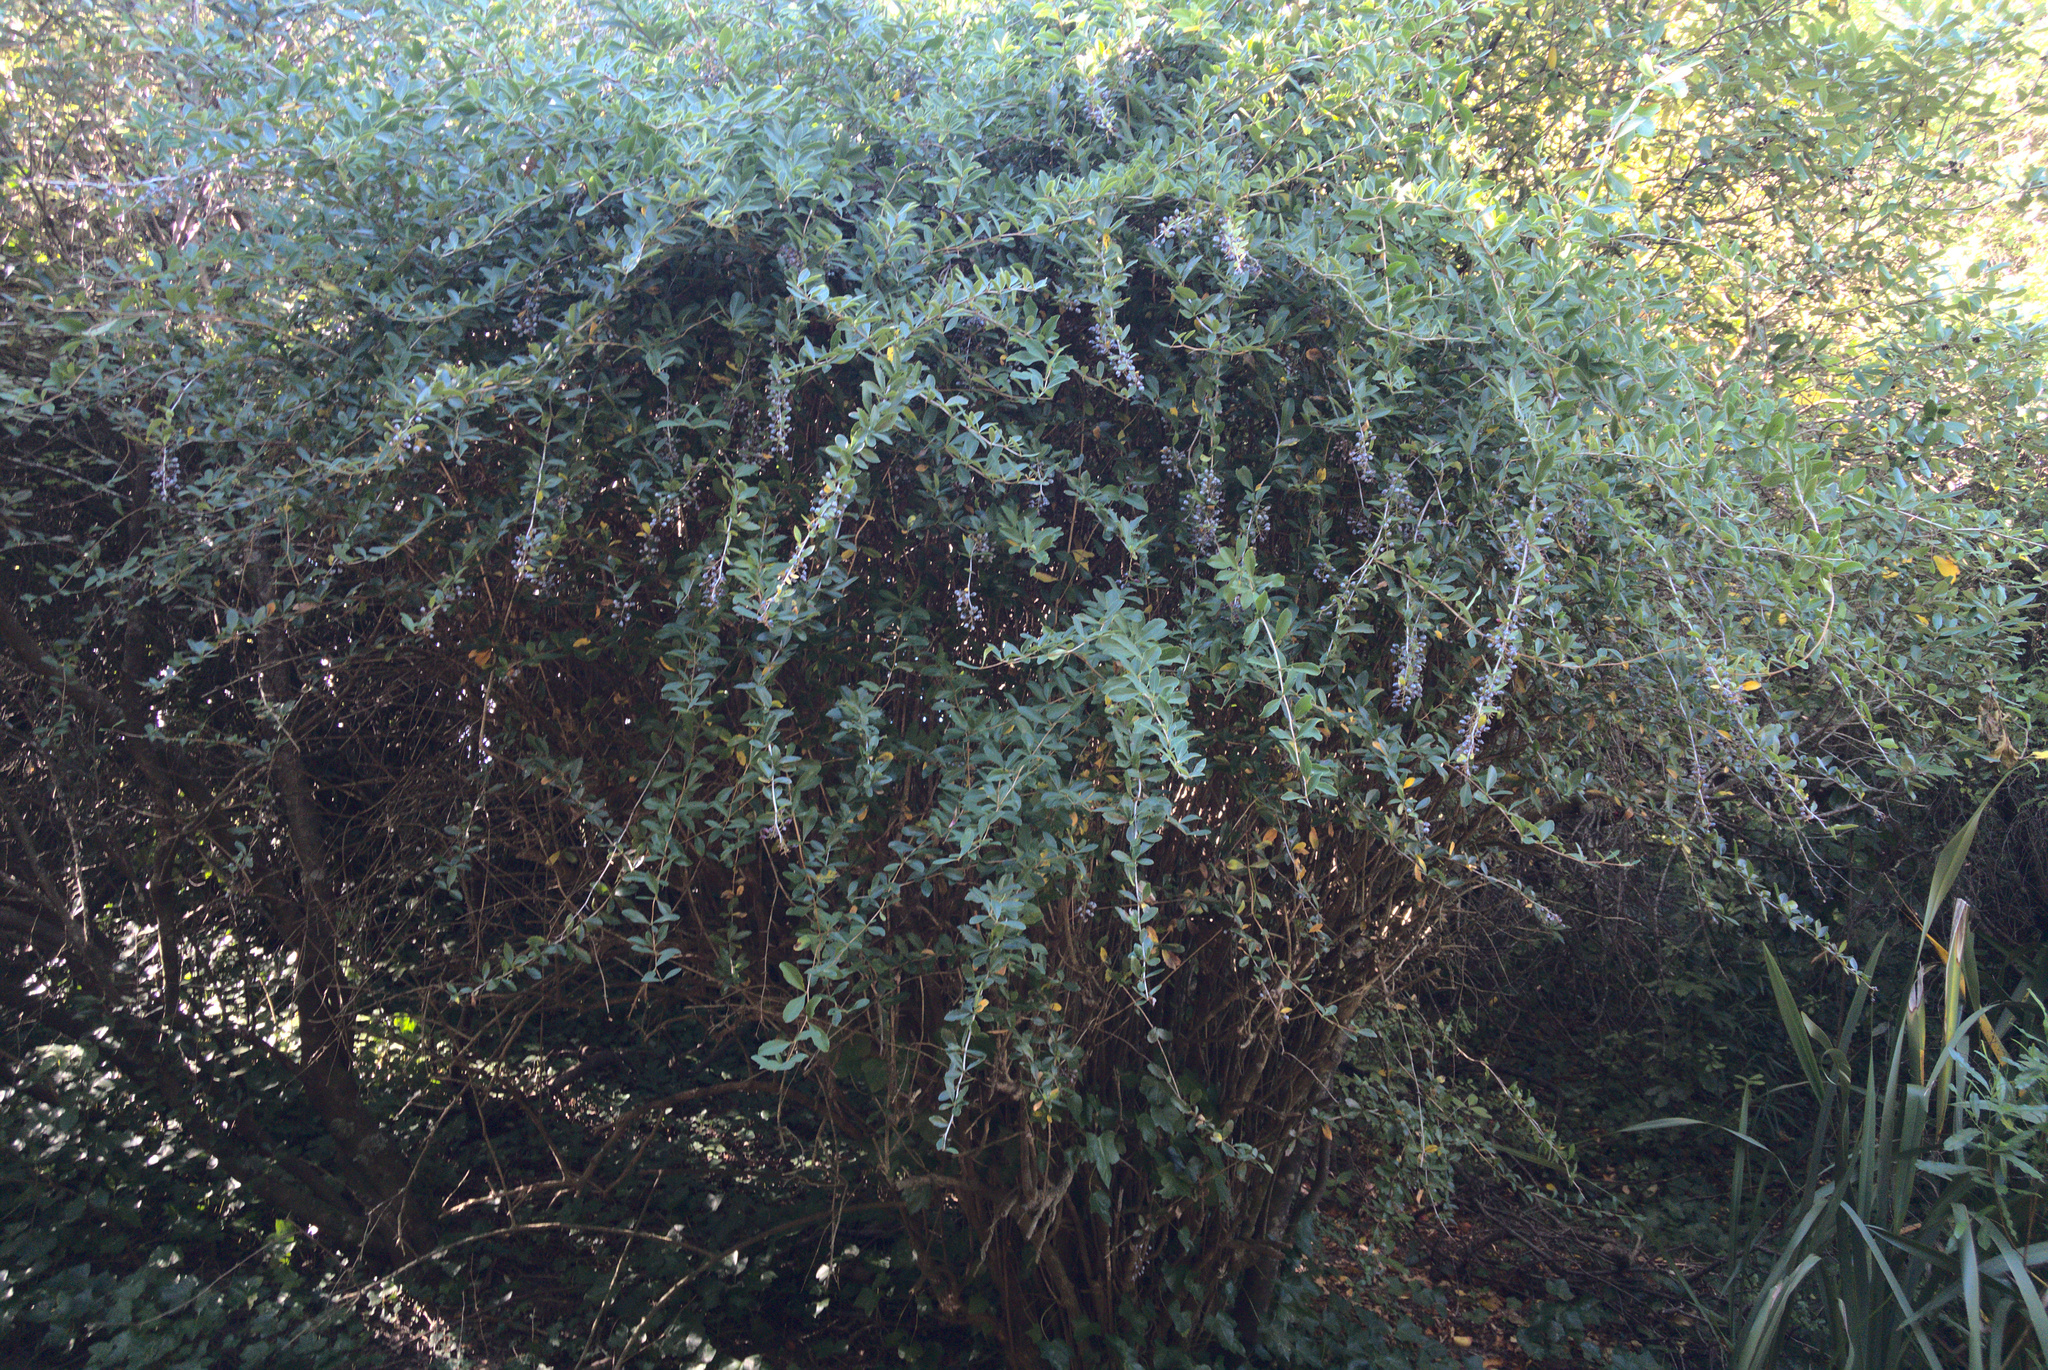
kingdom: Plantae
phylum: Tracheophyta
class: Magnoliopsida
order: Ranunculales
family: Berberidaceae
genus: Berberis
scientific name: Berberis glaucocarpa
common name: Great barberry
